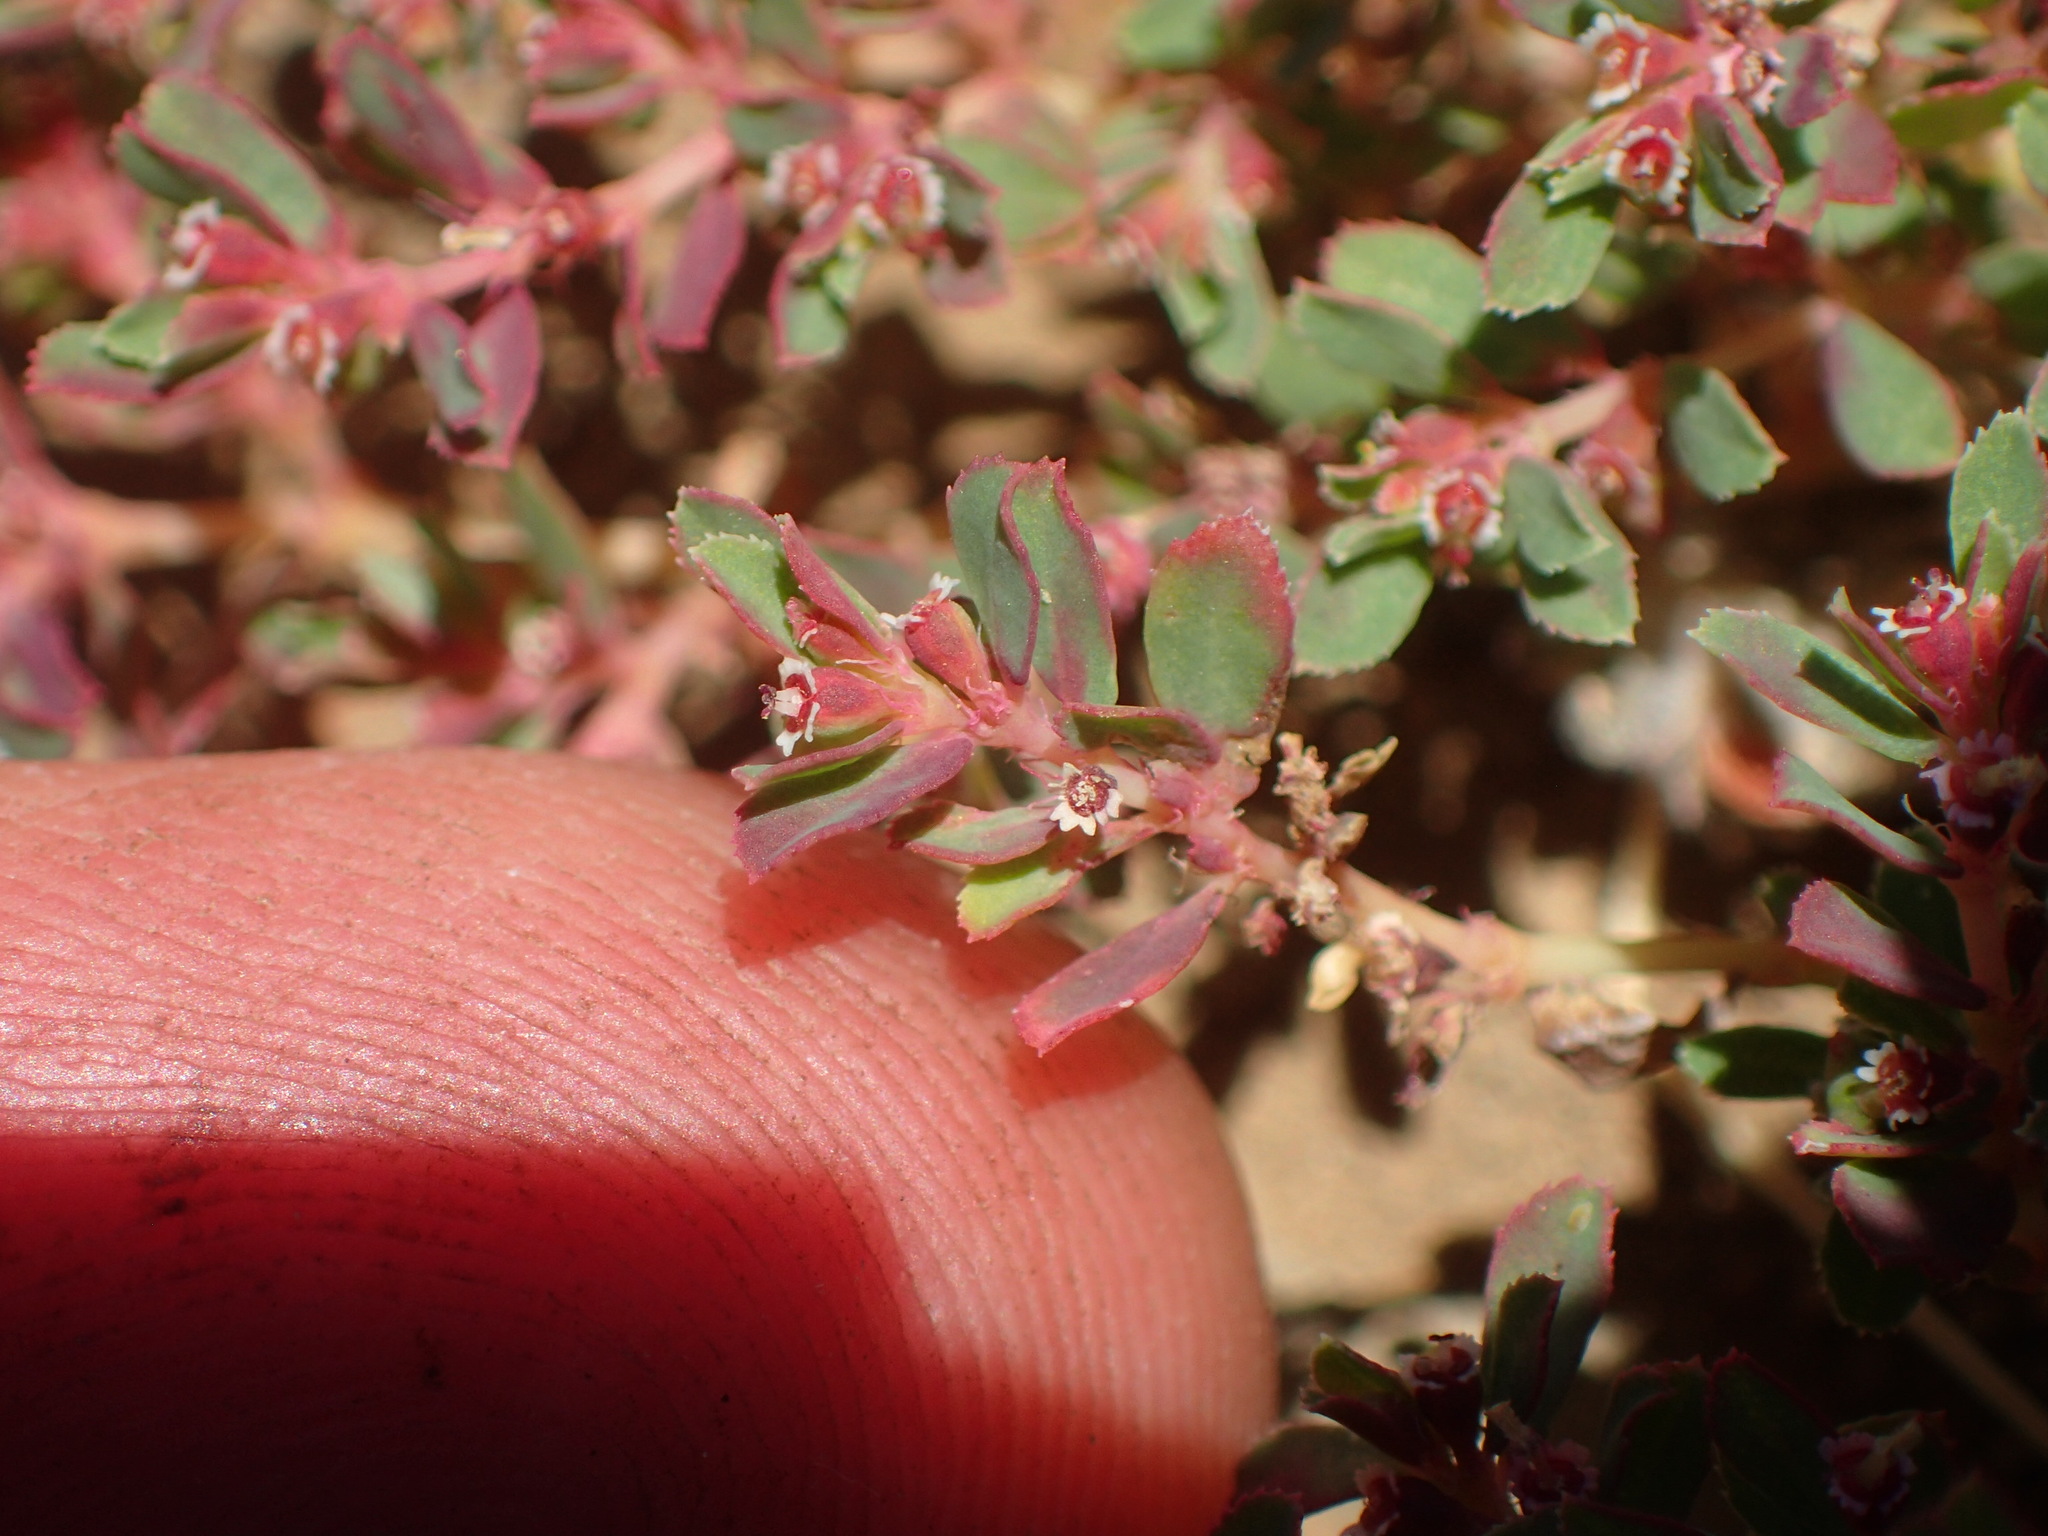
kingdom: Plantae
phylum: Tracheophyta
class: Magnoliopsida
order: Malpighiales
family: Euphorbiaceae
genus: Euphorbia
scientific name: Euphorbia serpillifolia
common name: Thyme-leaf spurge
